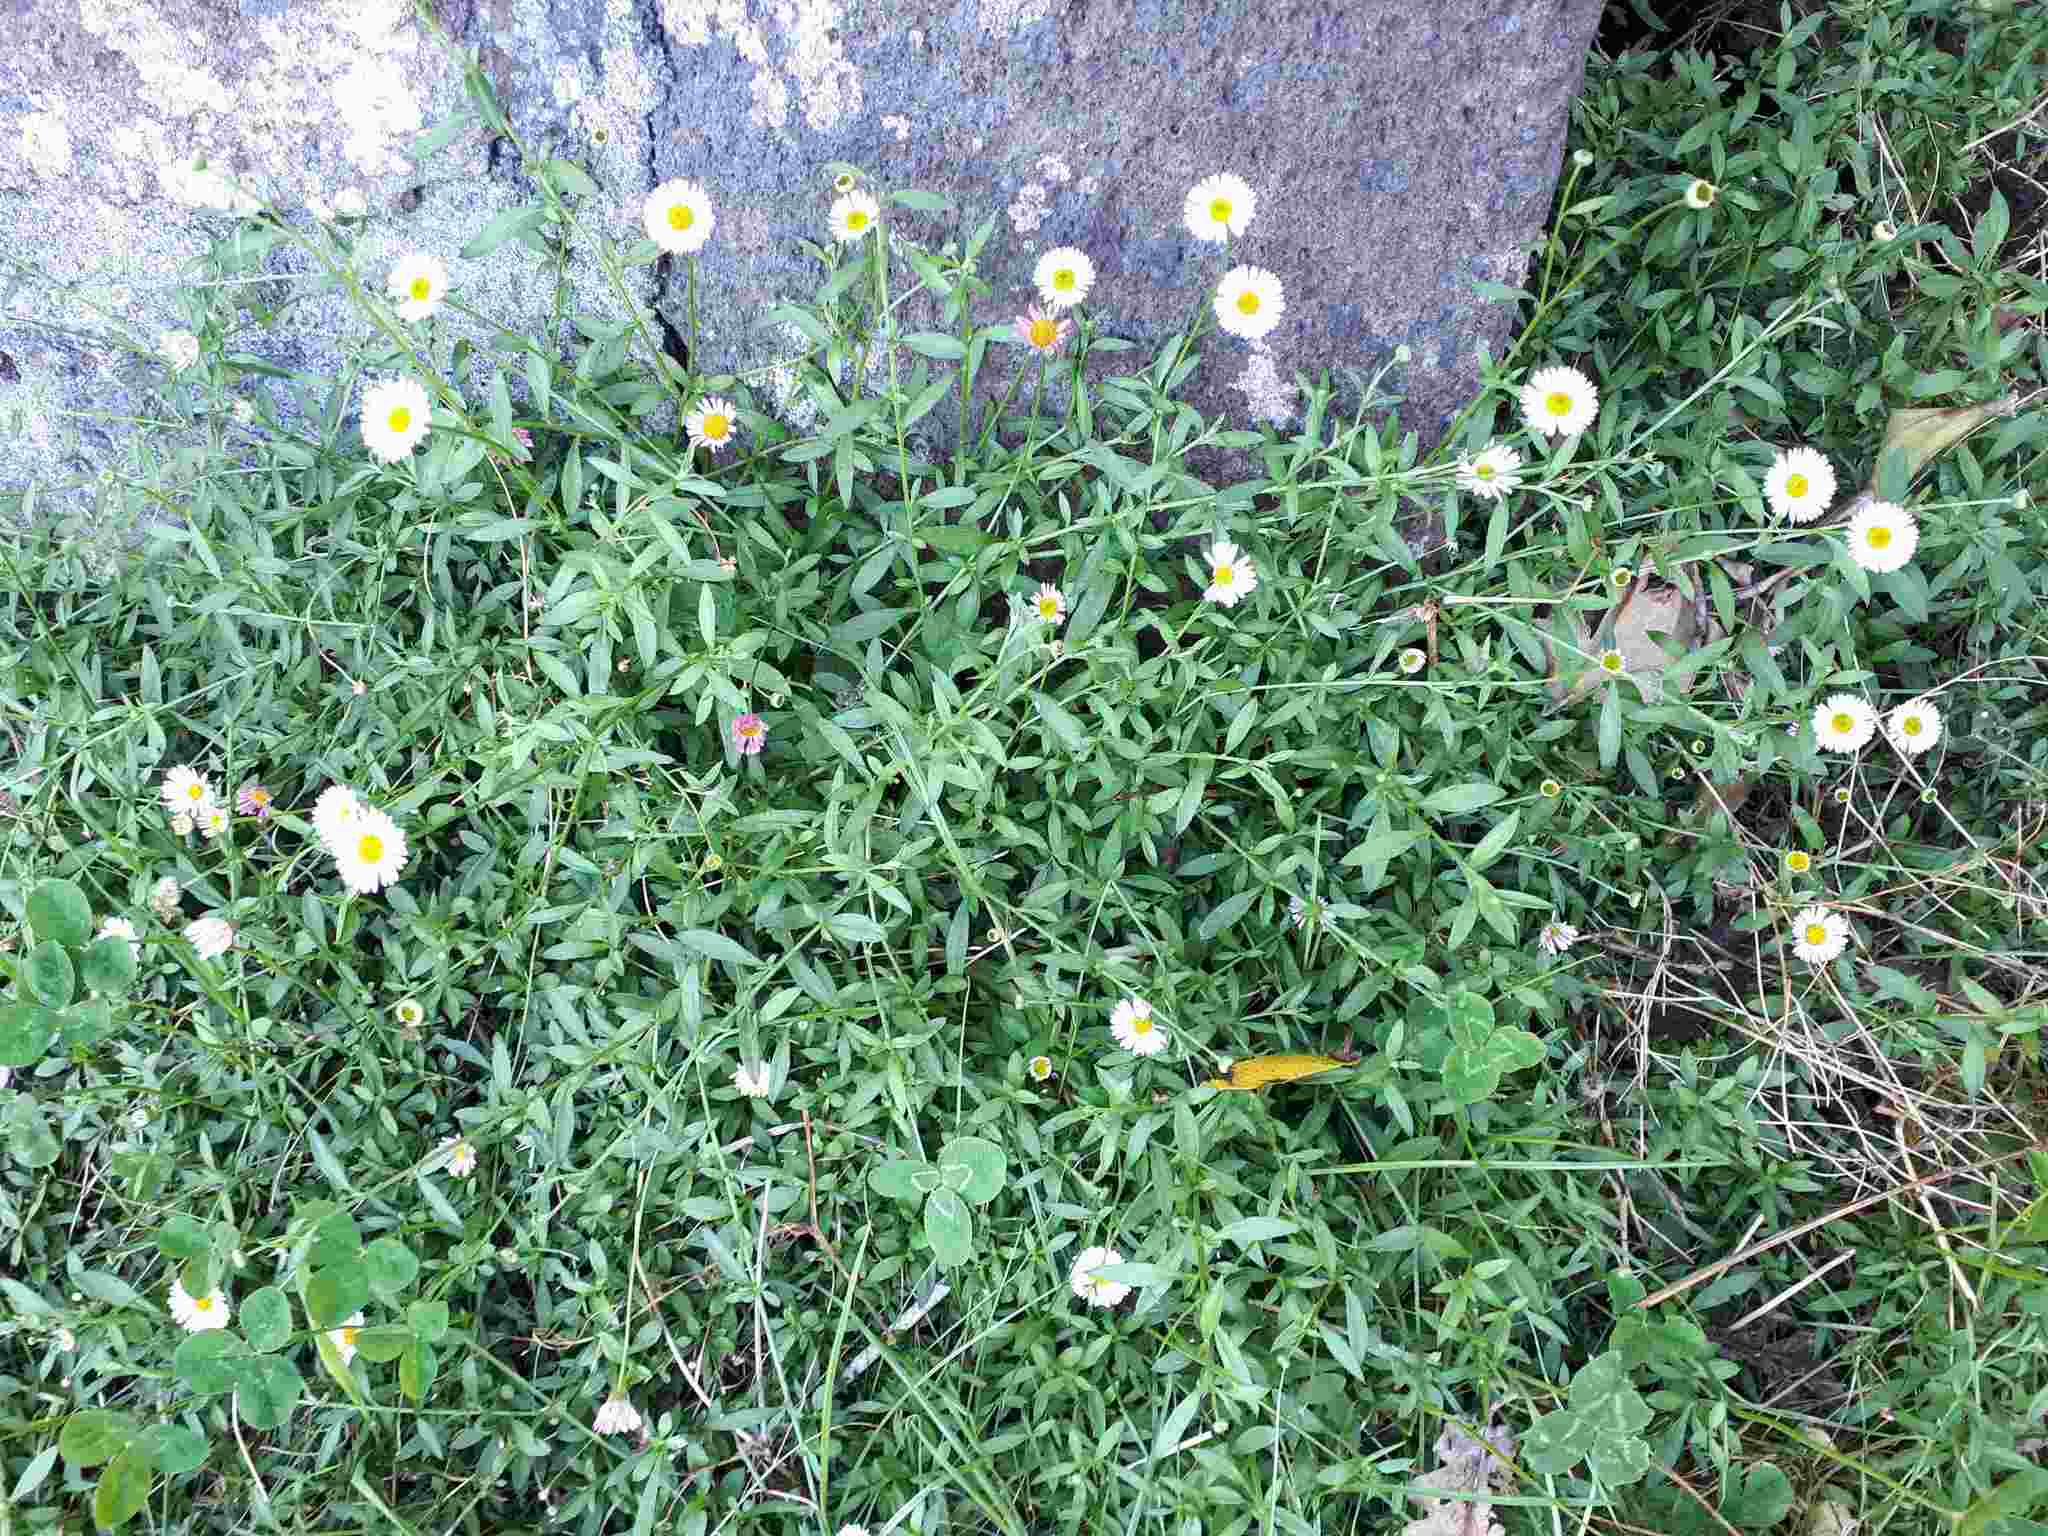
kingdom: Plantae
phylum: Tracheophyta
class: Magnoliopsida
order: Asterales
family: Asteraceae
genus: Erigeron
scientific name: Erigeron karvinskianus
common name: Mexican fleabane
